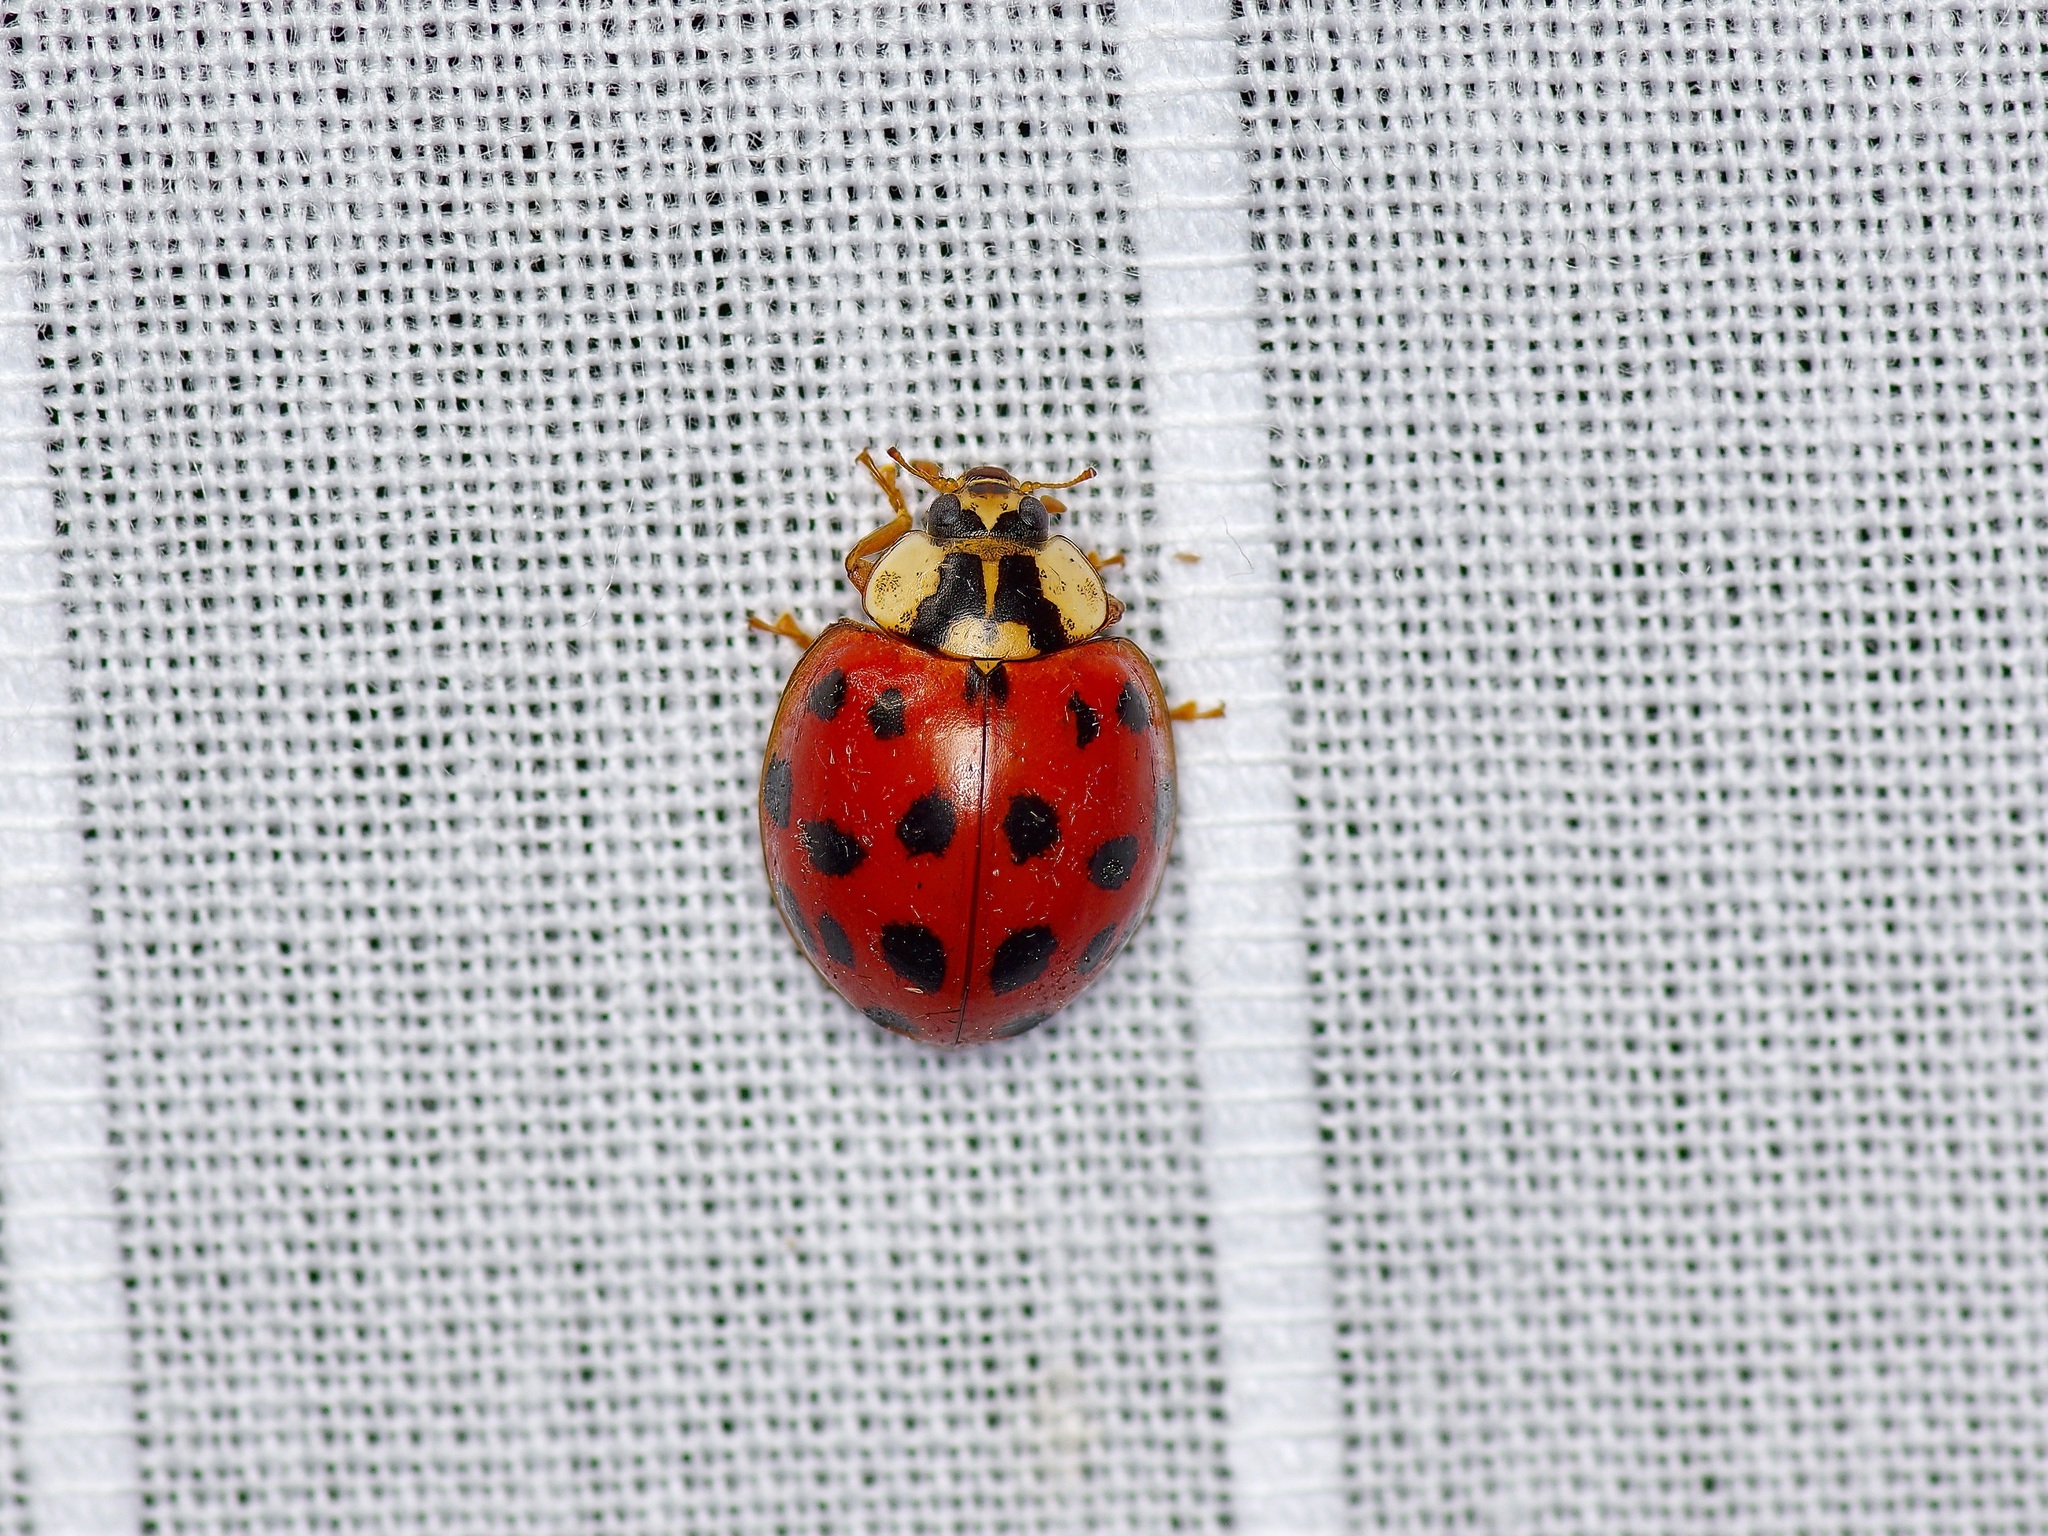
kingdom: Animalia
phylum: Arthropoda
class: Insecta
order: Coleoptera
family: Coccinellidae
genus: Harmonia
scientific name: Harmonia axyridis
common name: Harlequin ladybird
